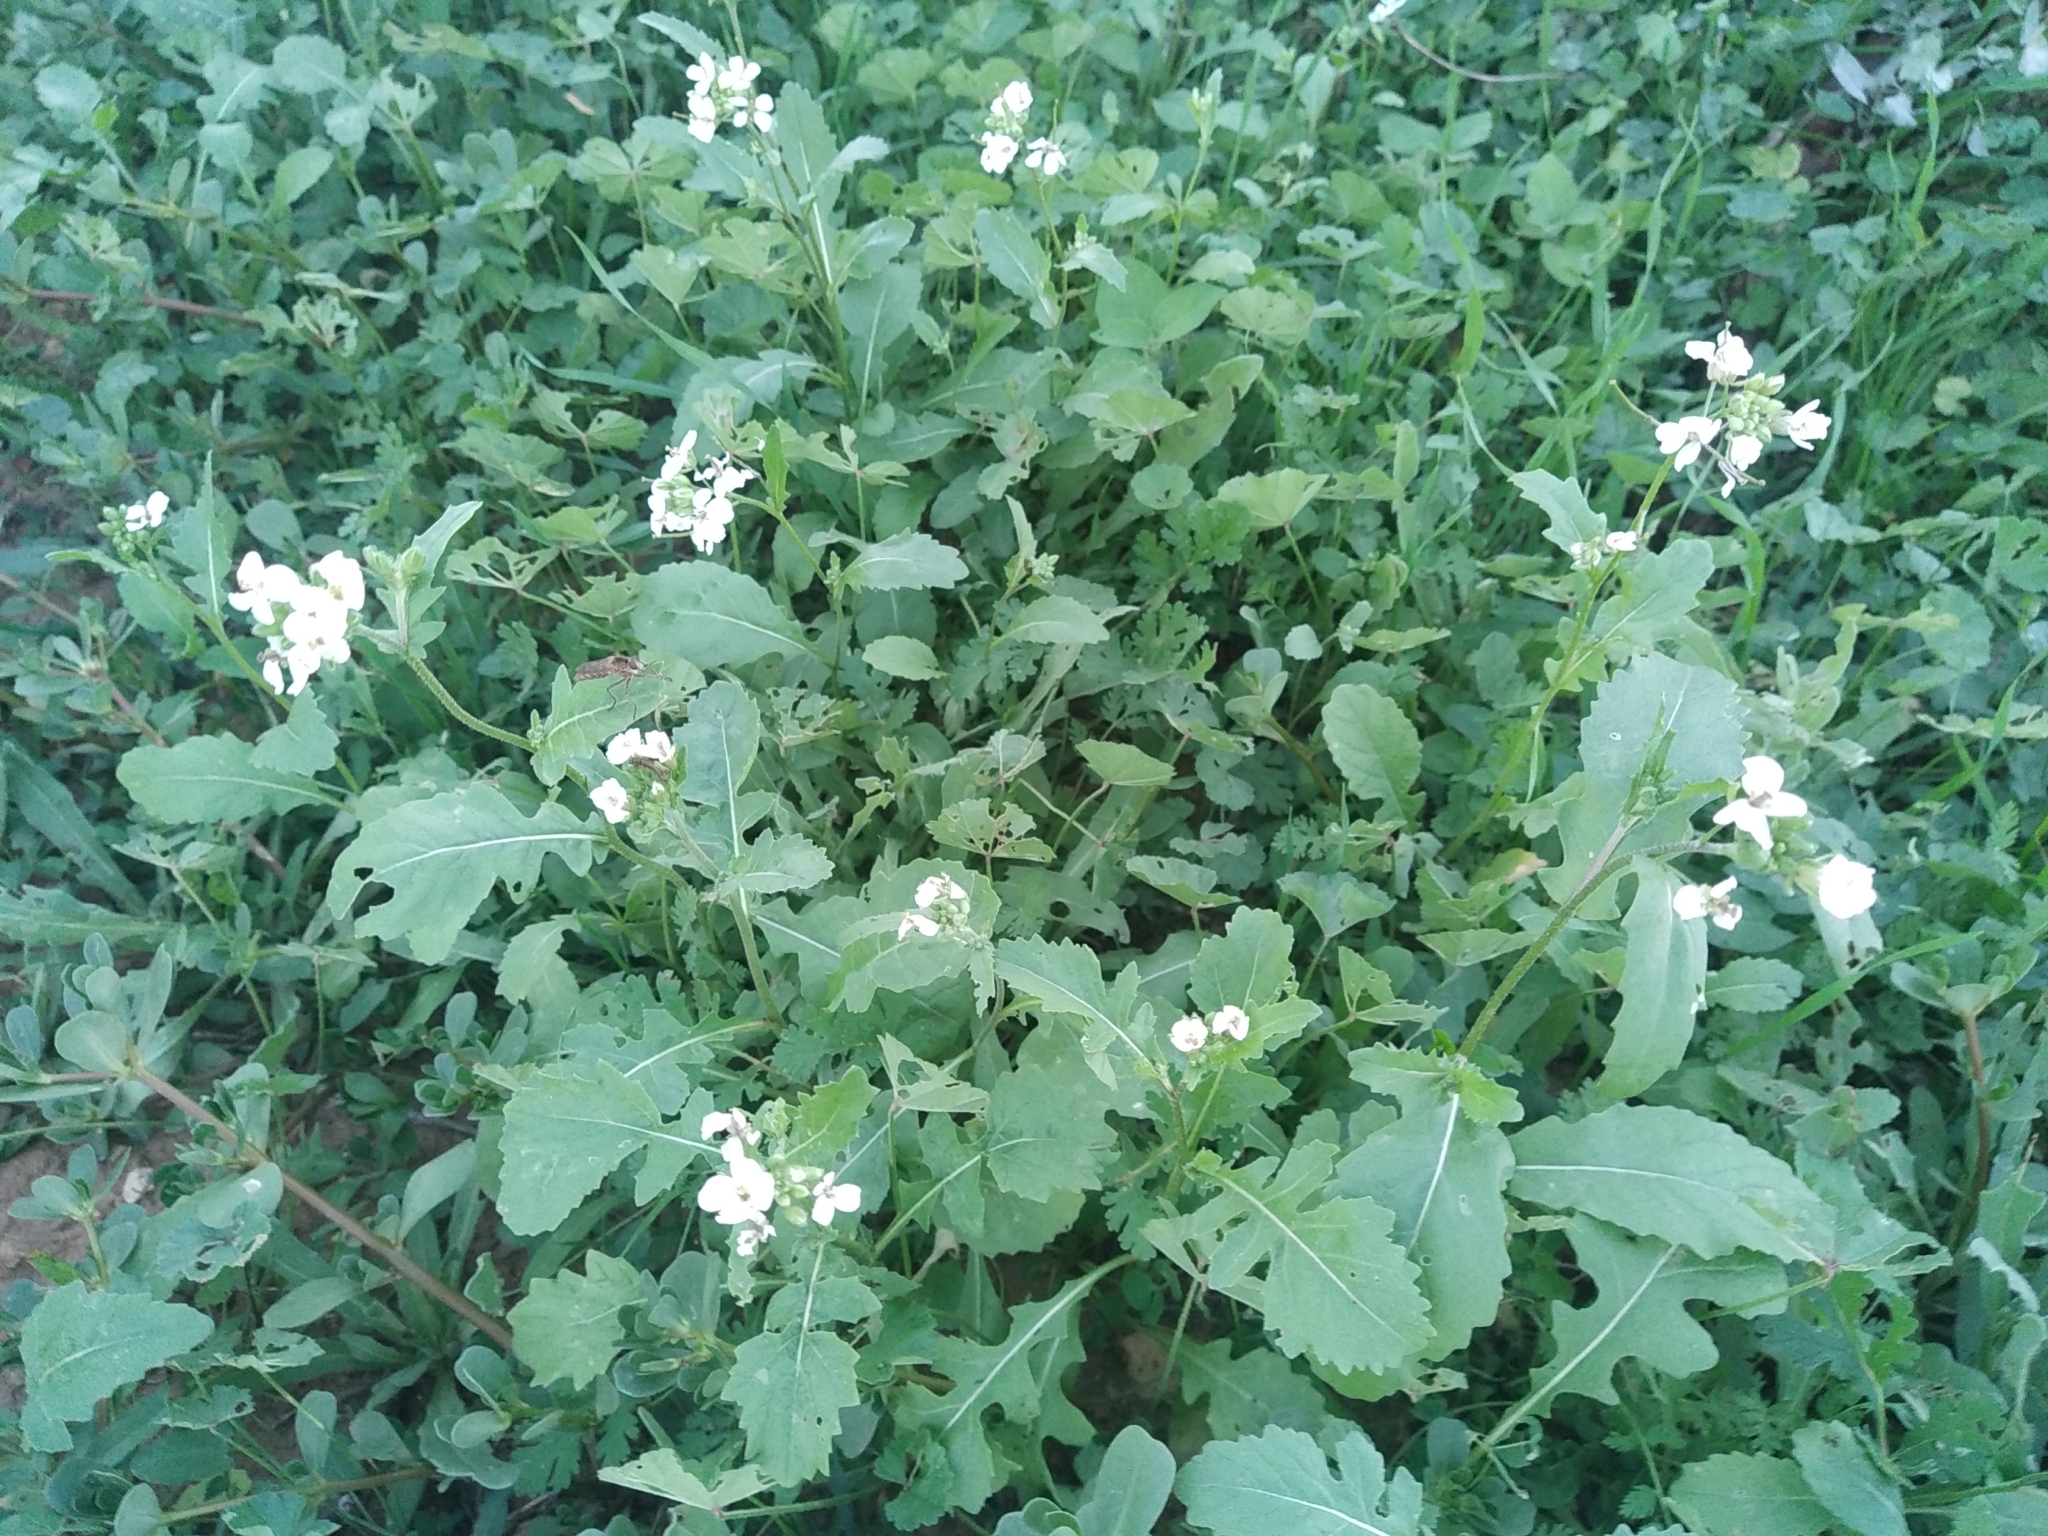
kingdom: Plantae
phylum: Tracheophyta
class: Magnoliopsida
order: Brassicales
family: Brassicaceae
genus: Diplotaxis
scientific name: Diplotaxis erucoides
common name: White rocket
